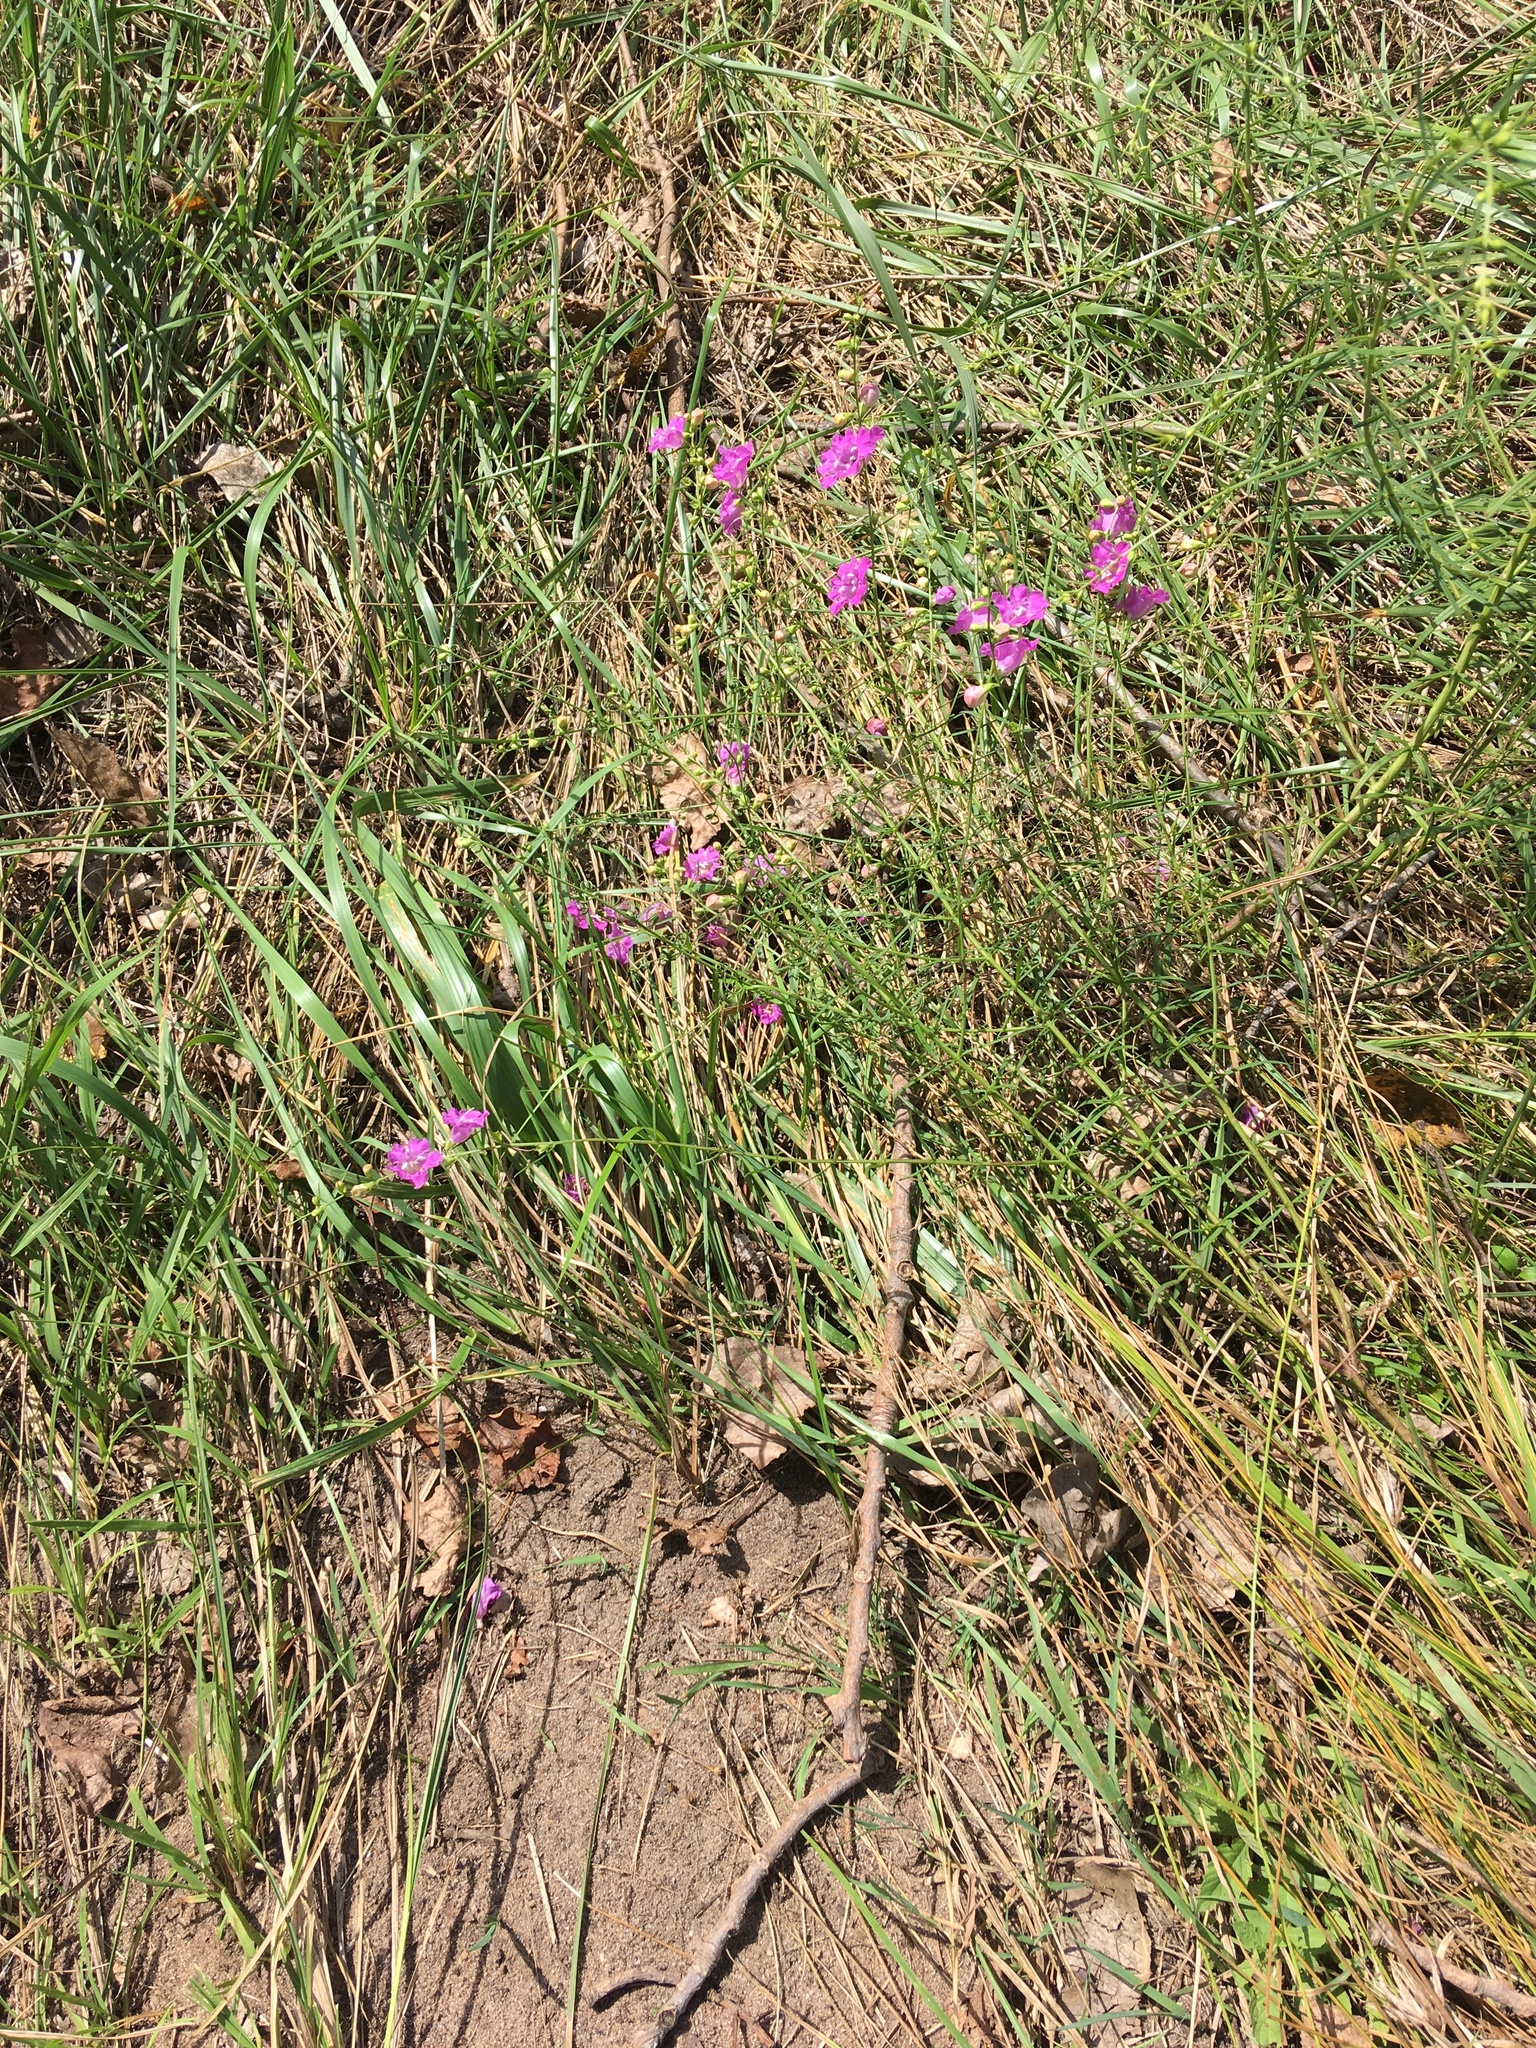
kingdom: Plantae
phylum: Tracheophyta
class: Magnoliopsida
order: Lamiales
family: Orobanchaceae
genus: Agalinis
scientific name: Agalinis purpurea
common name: Purple false foxglove
